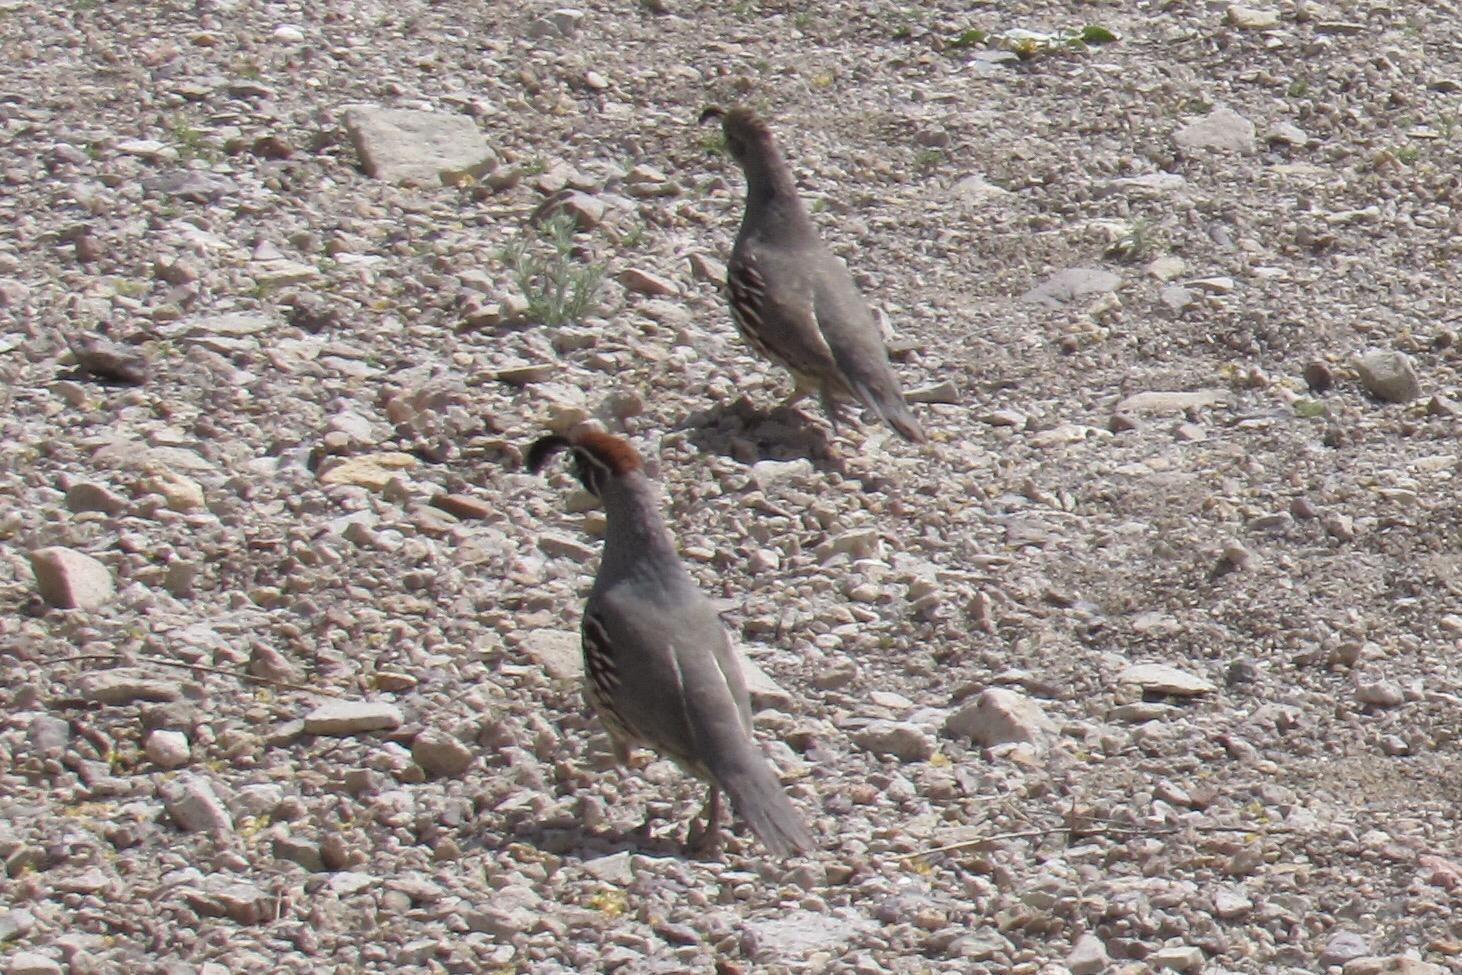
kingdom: Animalia
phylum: Chordata
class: Aves
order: Galliformes
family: Odontophoridae
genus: Callipepla
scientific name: Callipepla gambelii
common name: Gambel's quail
